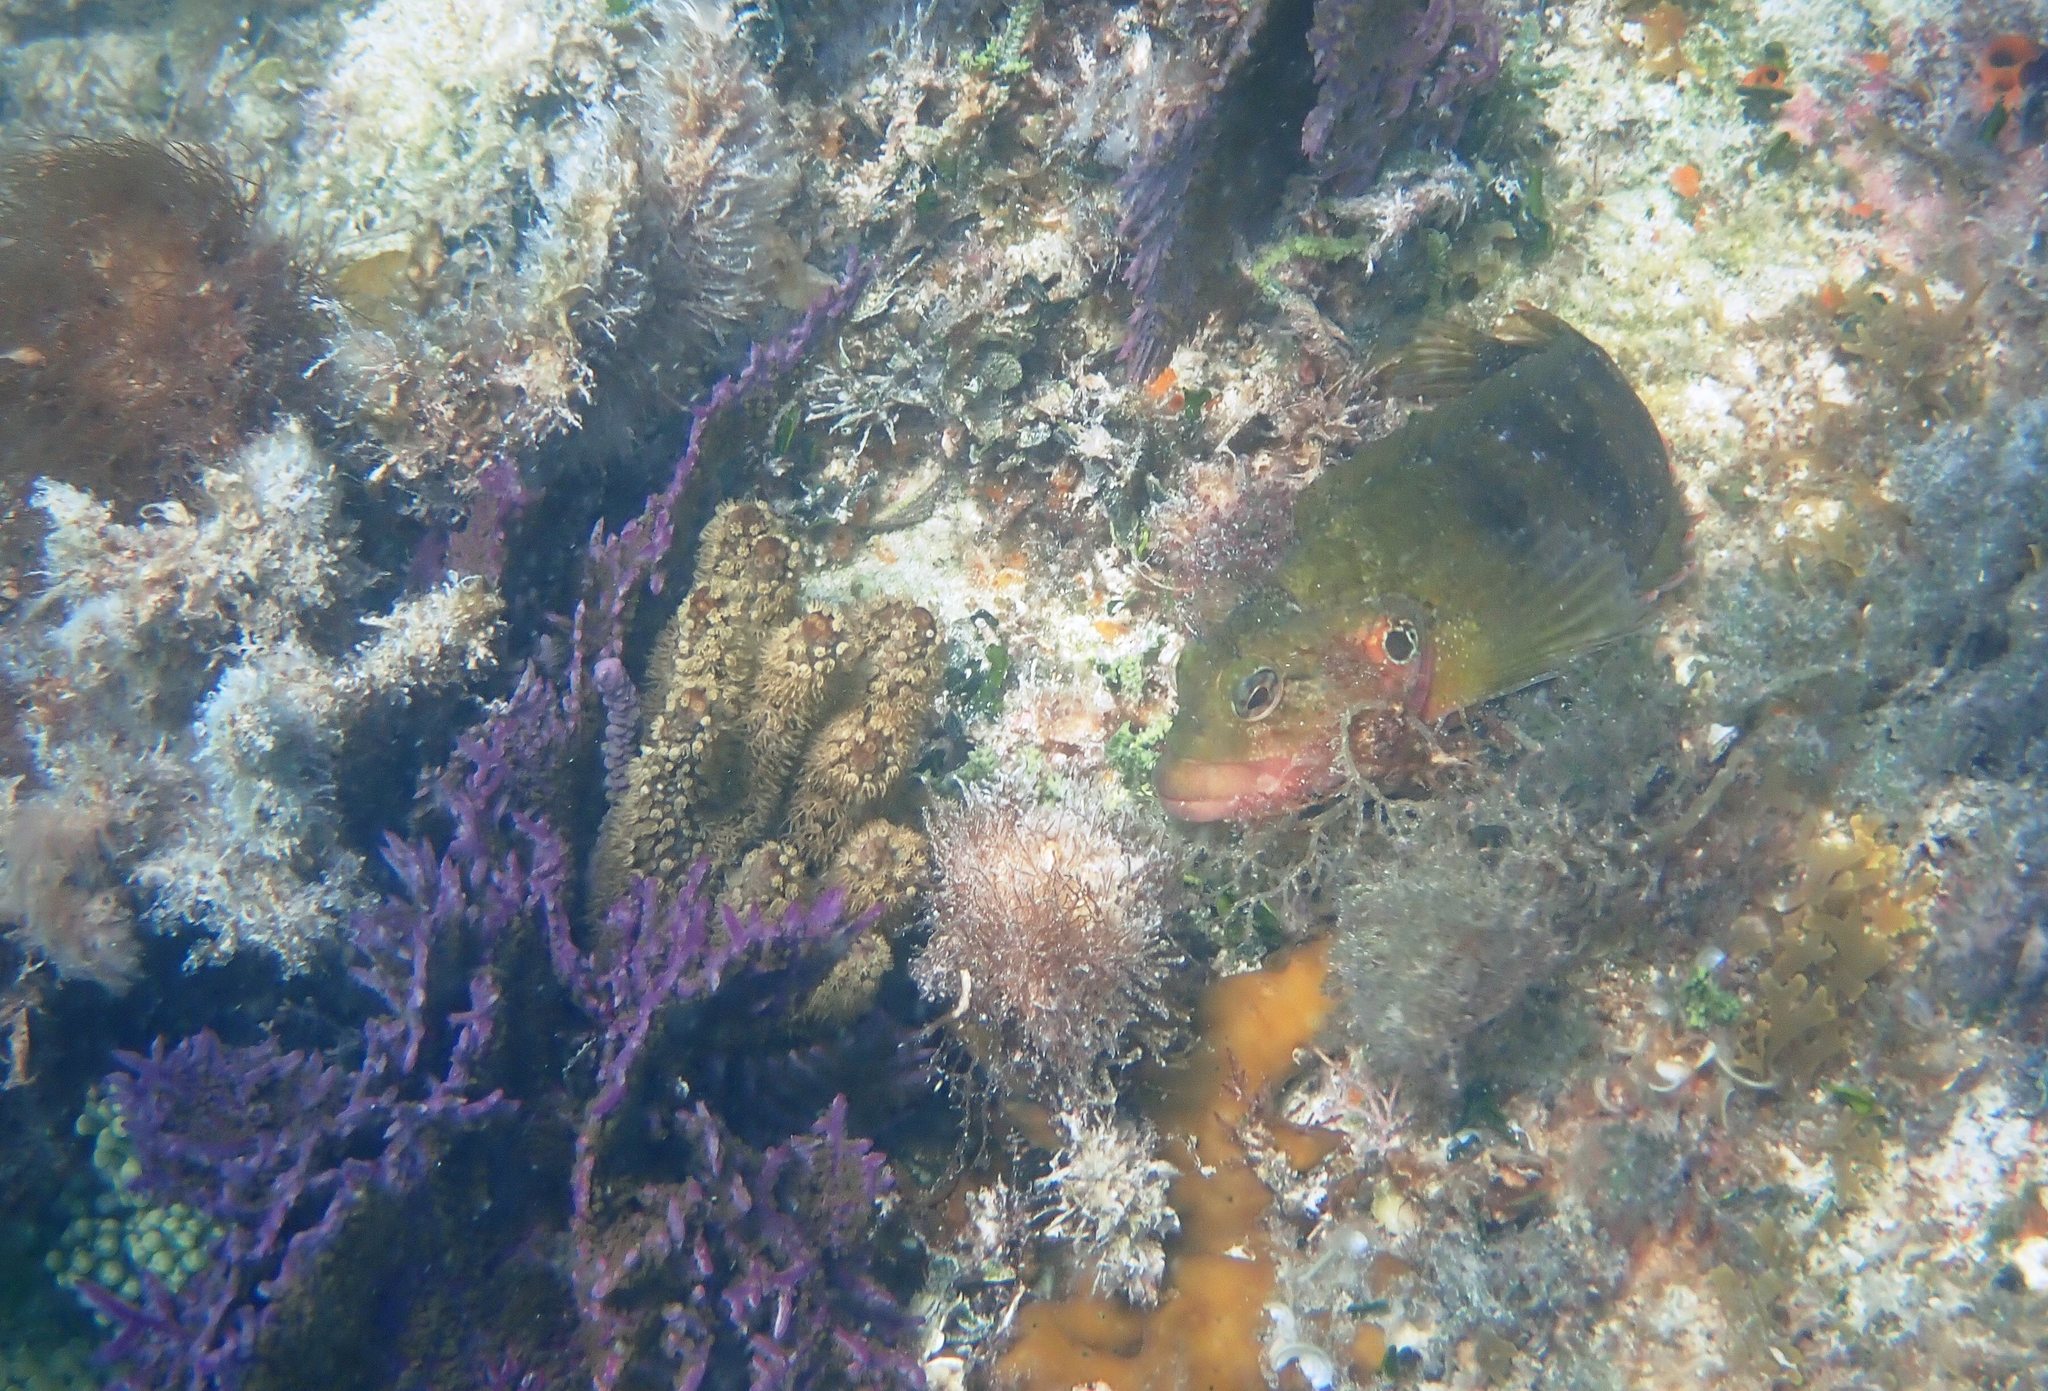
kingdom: Animalia
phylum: Chordata
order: Perciformes
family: Labrisomidae
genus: Labrisomus
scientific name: Labrisomus nuchipinnis
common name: Hairy blenny
